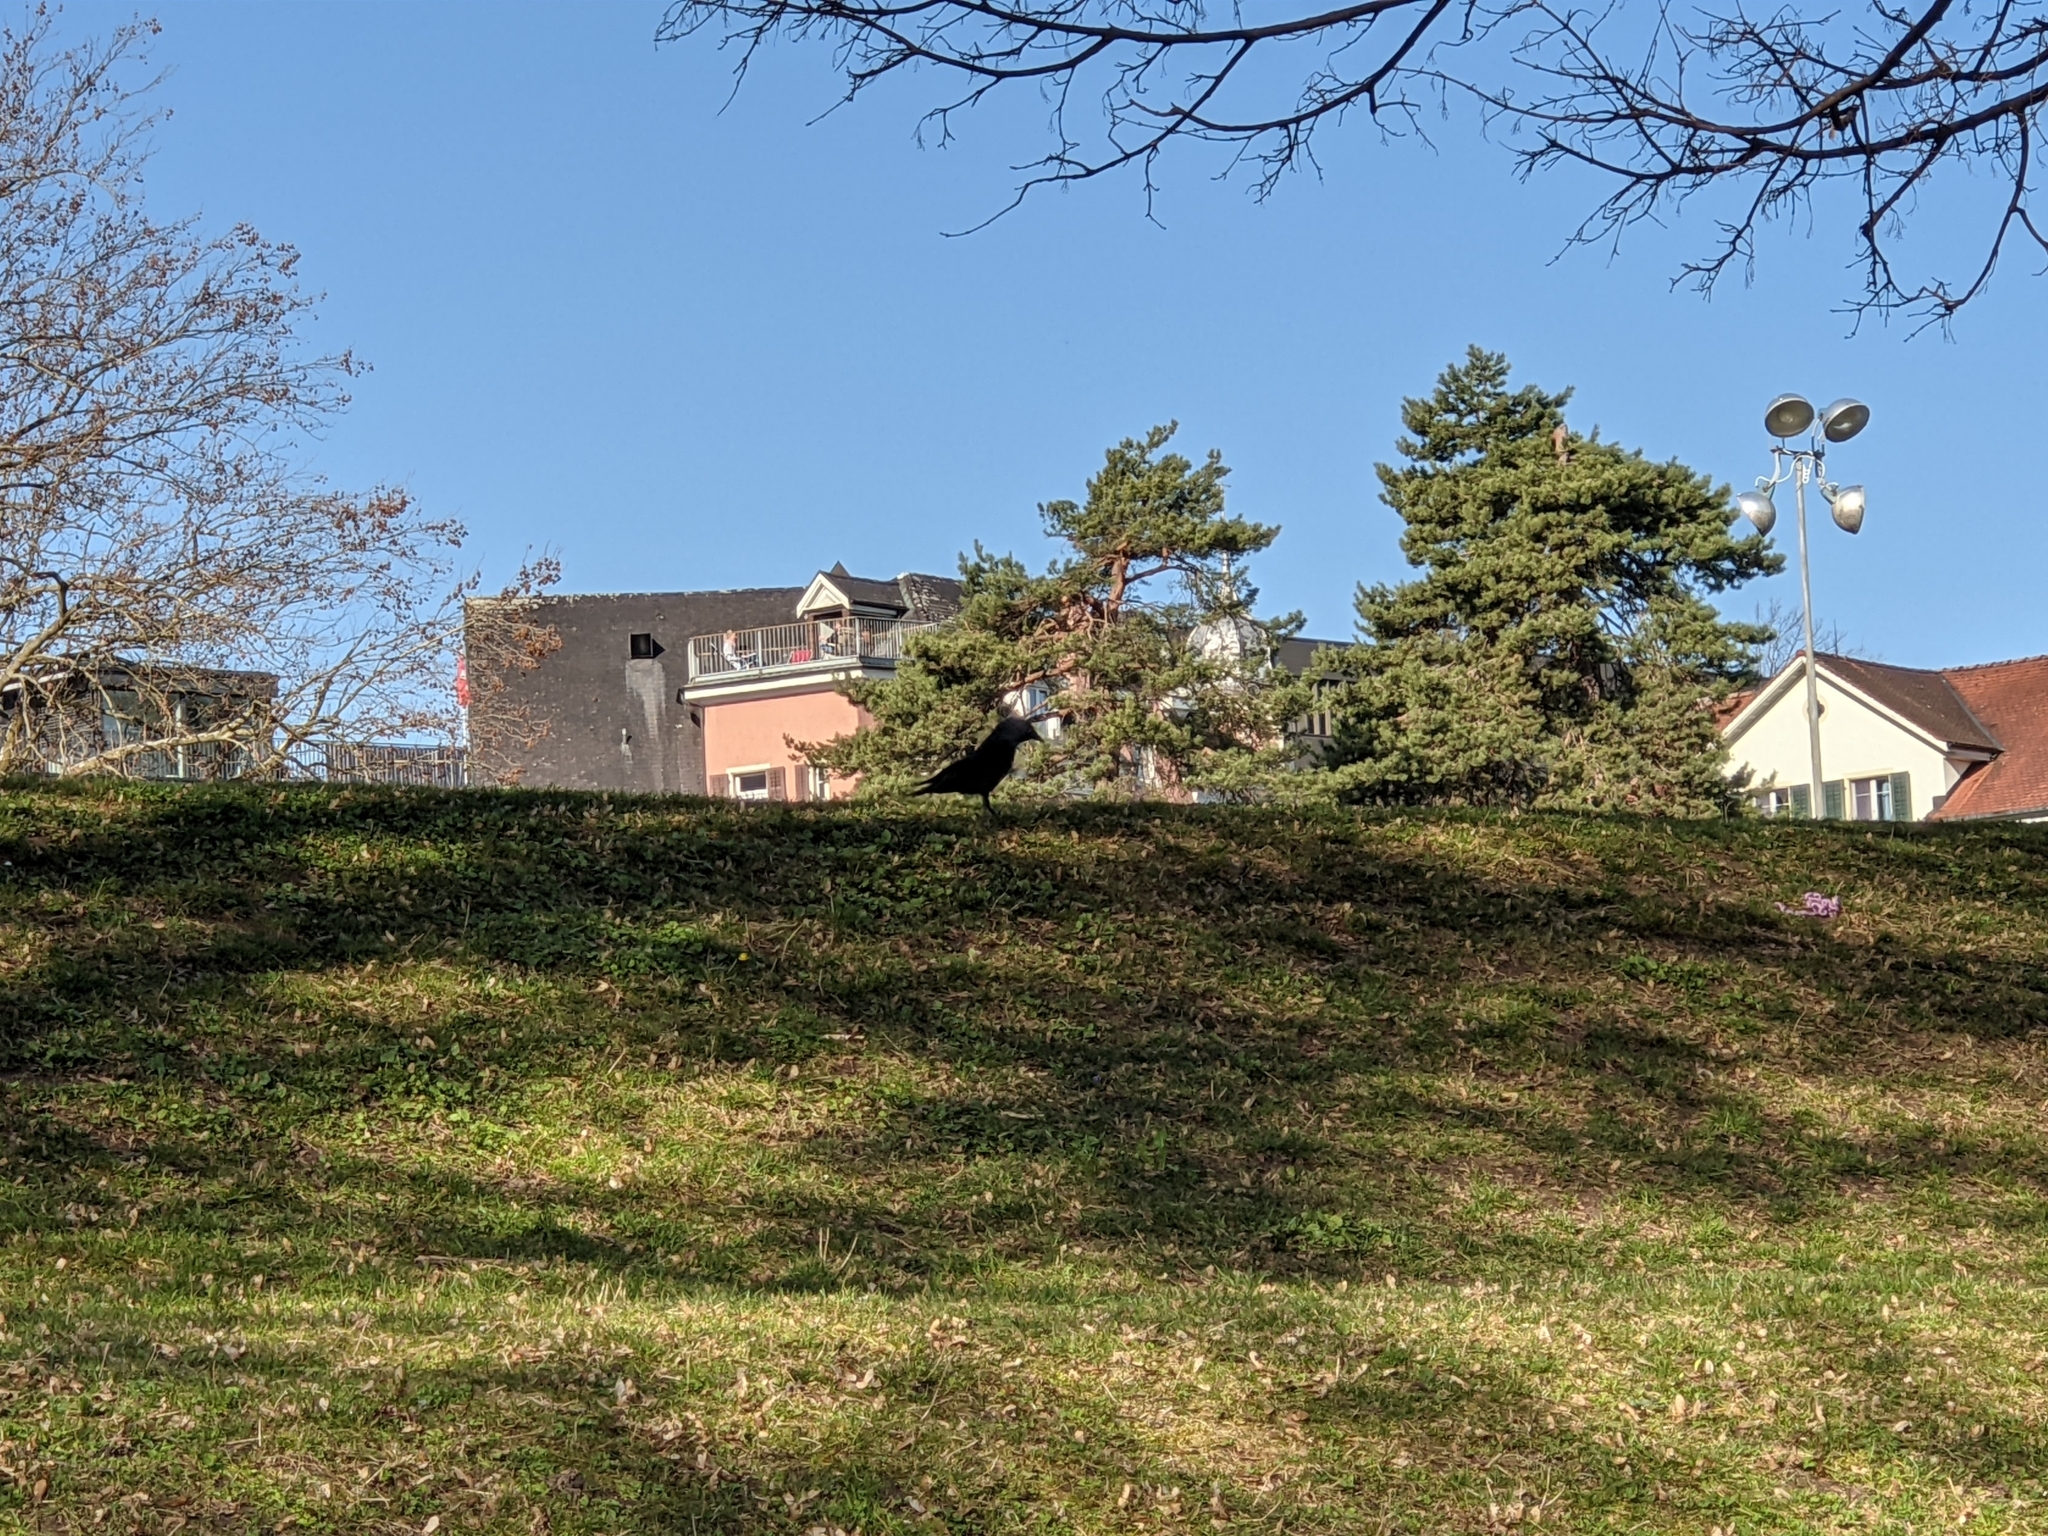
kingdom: Animalia
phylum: Chordata
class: Aves
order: Passeriformes
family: Corvidae
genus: Coloeus
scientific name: Coloeus monedula
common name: Western jackdaw
